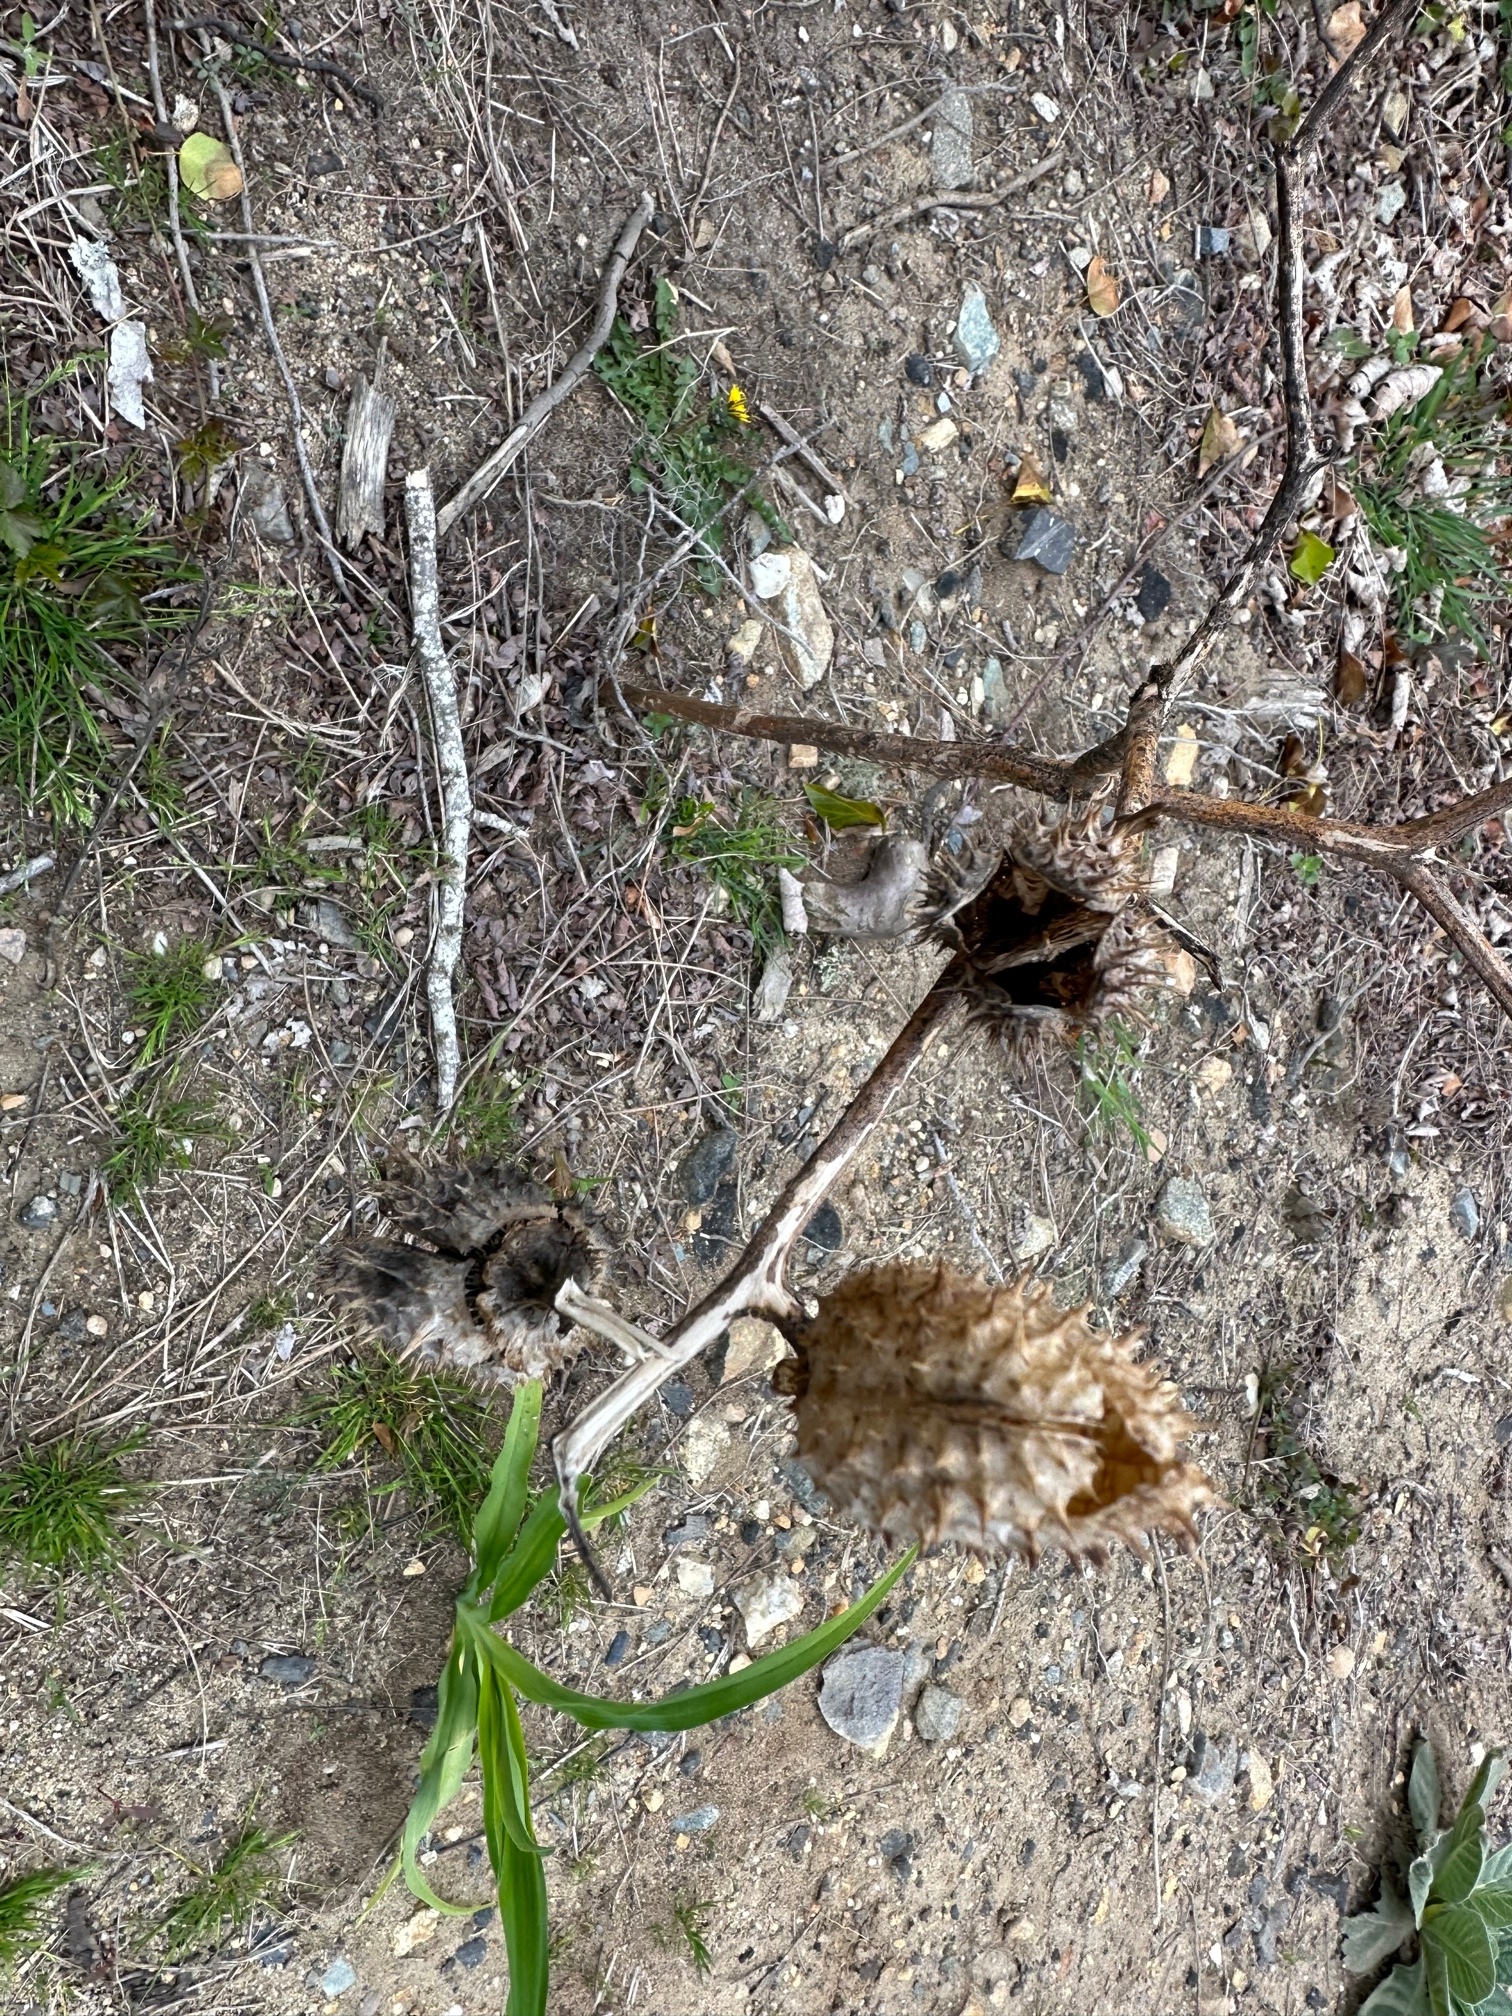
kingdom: Plantae
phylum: Tracheophyta
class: Magnoliopsida
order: Solanales
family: Solanaceae
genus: Datura
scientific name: Datura stramonium
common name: Thorn-apple
